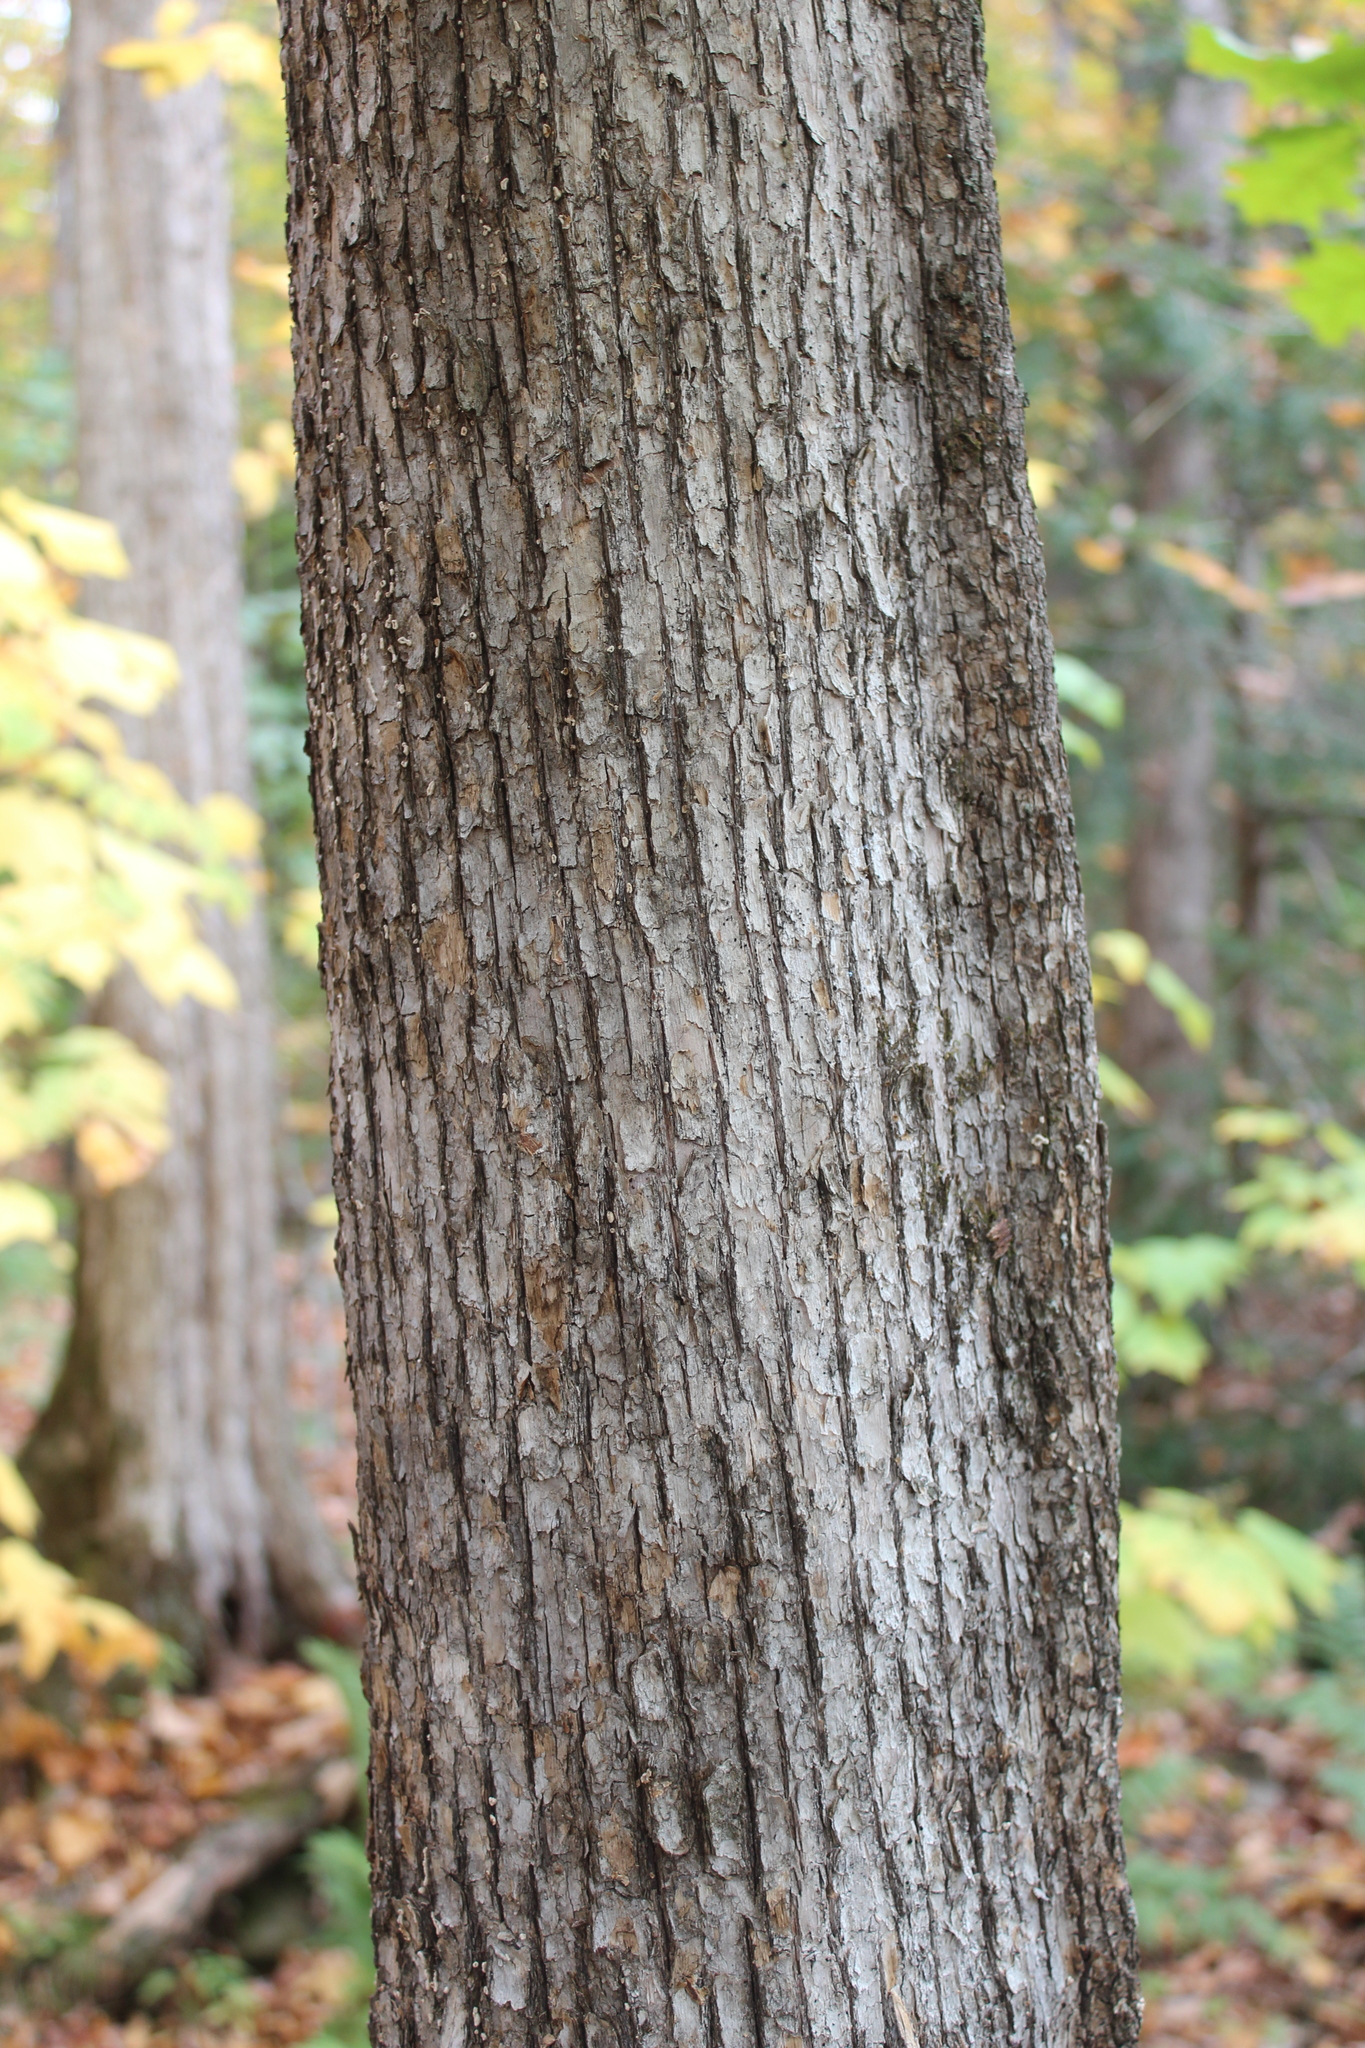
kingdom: Plantae
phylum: Tracheophyta
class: Magnoliopsida
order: Fagales
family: Betulaceae
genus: Ostrya
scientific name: Ostrya virginiana
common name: Ironwood
